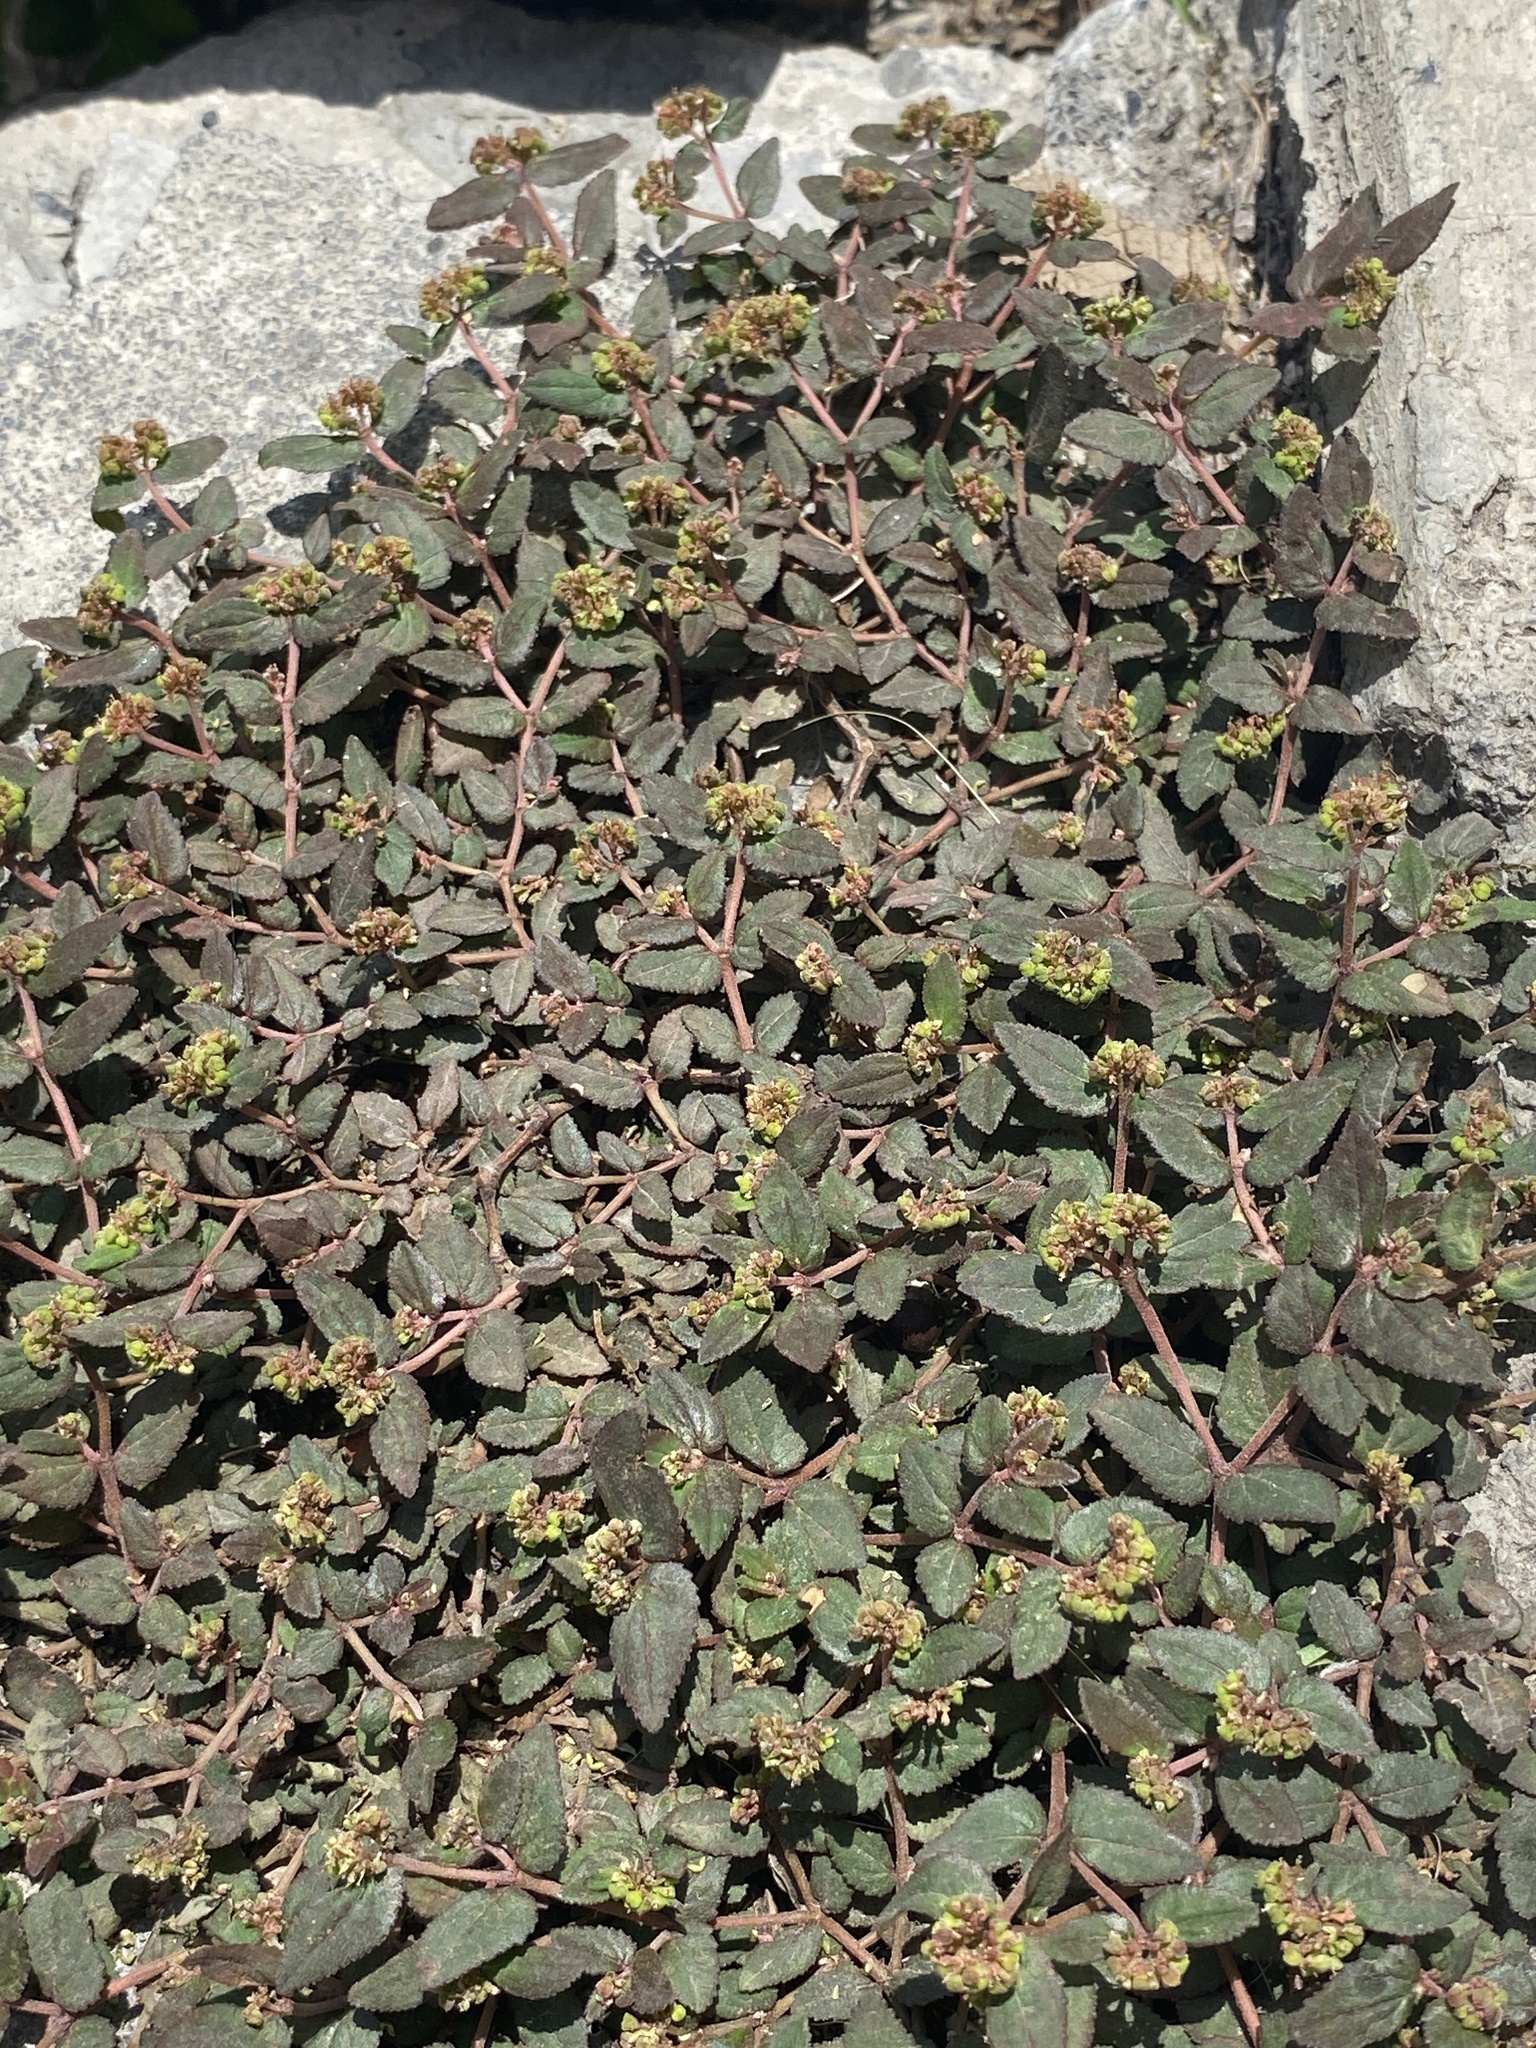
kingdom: Plantae
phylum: Tracheophyta
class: Magnoliopsida
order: Malpighiales
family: Euphorbiaceae
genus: Euphorbia
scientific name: Euphorbia ophthalmica
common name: Florida hammock sandmat
